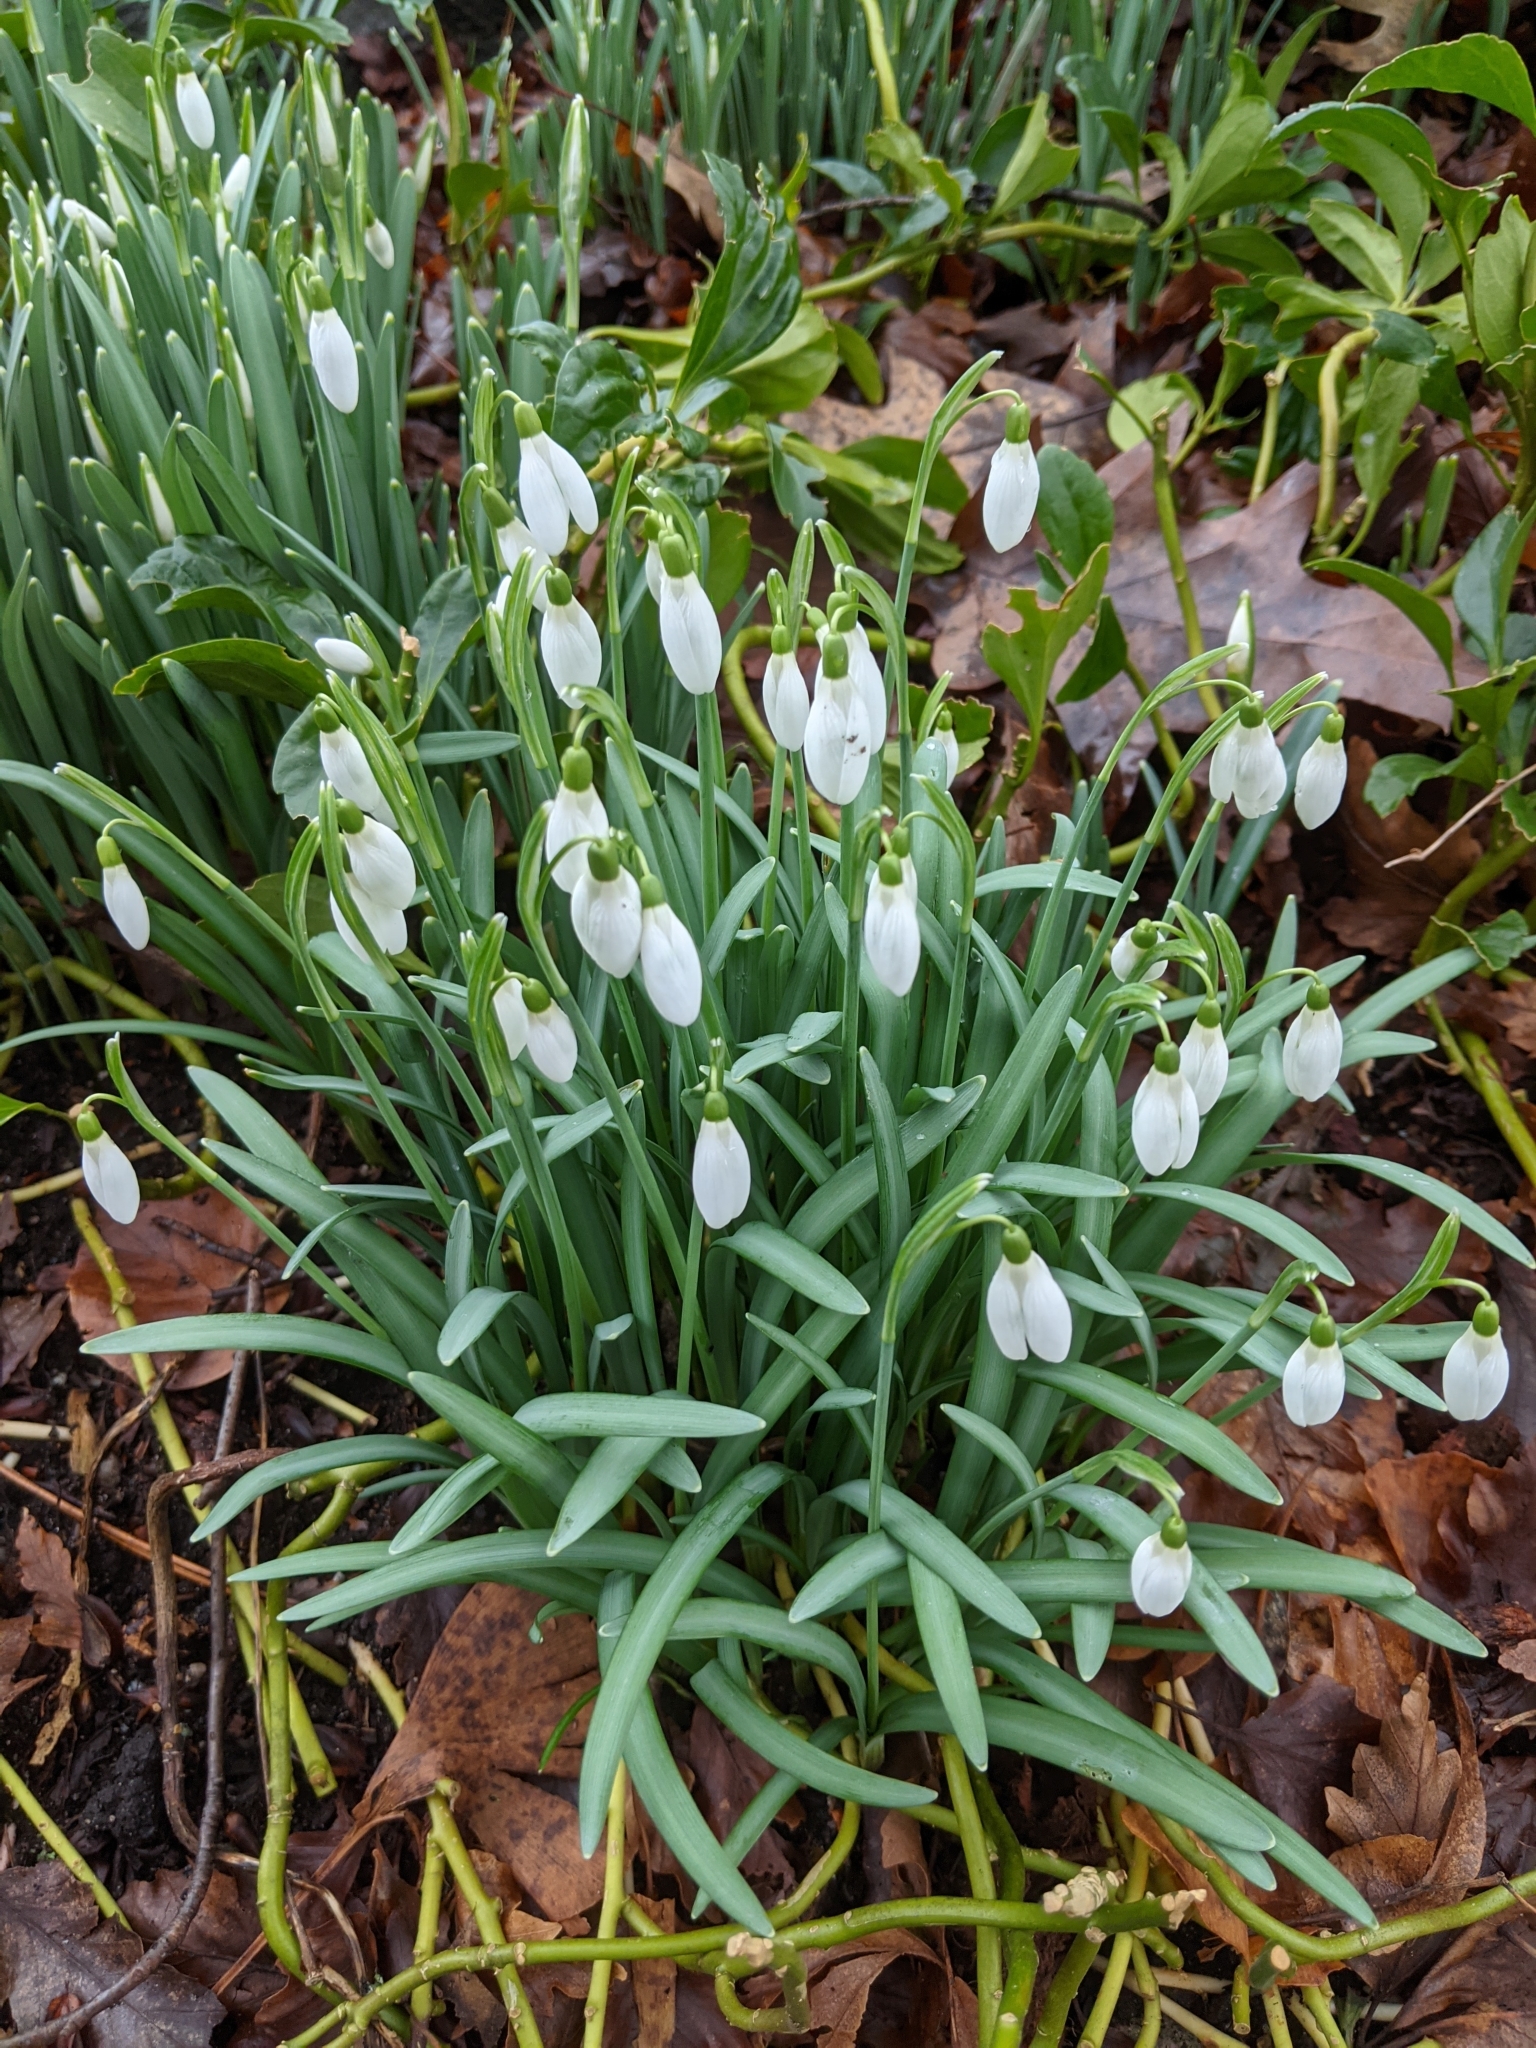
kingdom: Plantae
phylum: Tracheophyta
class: Liliopsida
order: Asparagales
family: Amaryllidaceae
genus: Galanthus
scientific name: Galanthus nivalis
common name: Snowdrop
